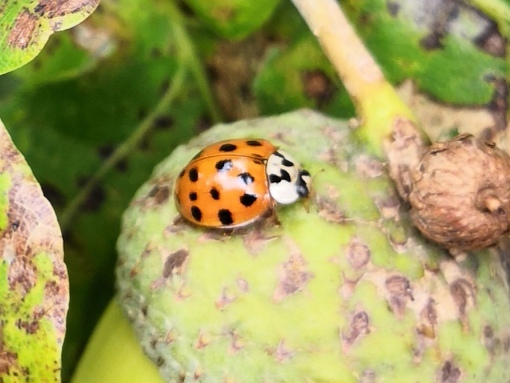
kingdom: Animalia
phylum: Arthropoda
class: Insecta
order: Coleoptera
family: Coccinellidae
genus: Harmonia
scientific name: Harmonia axyridis
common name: Harlequin ladybird
